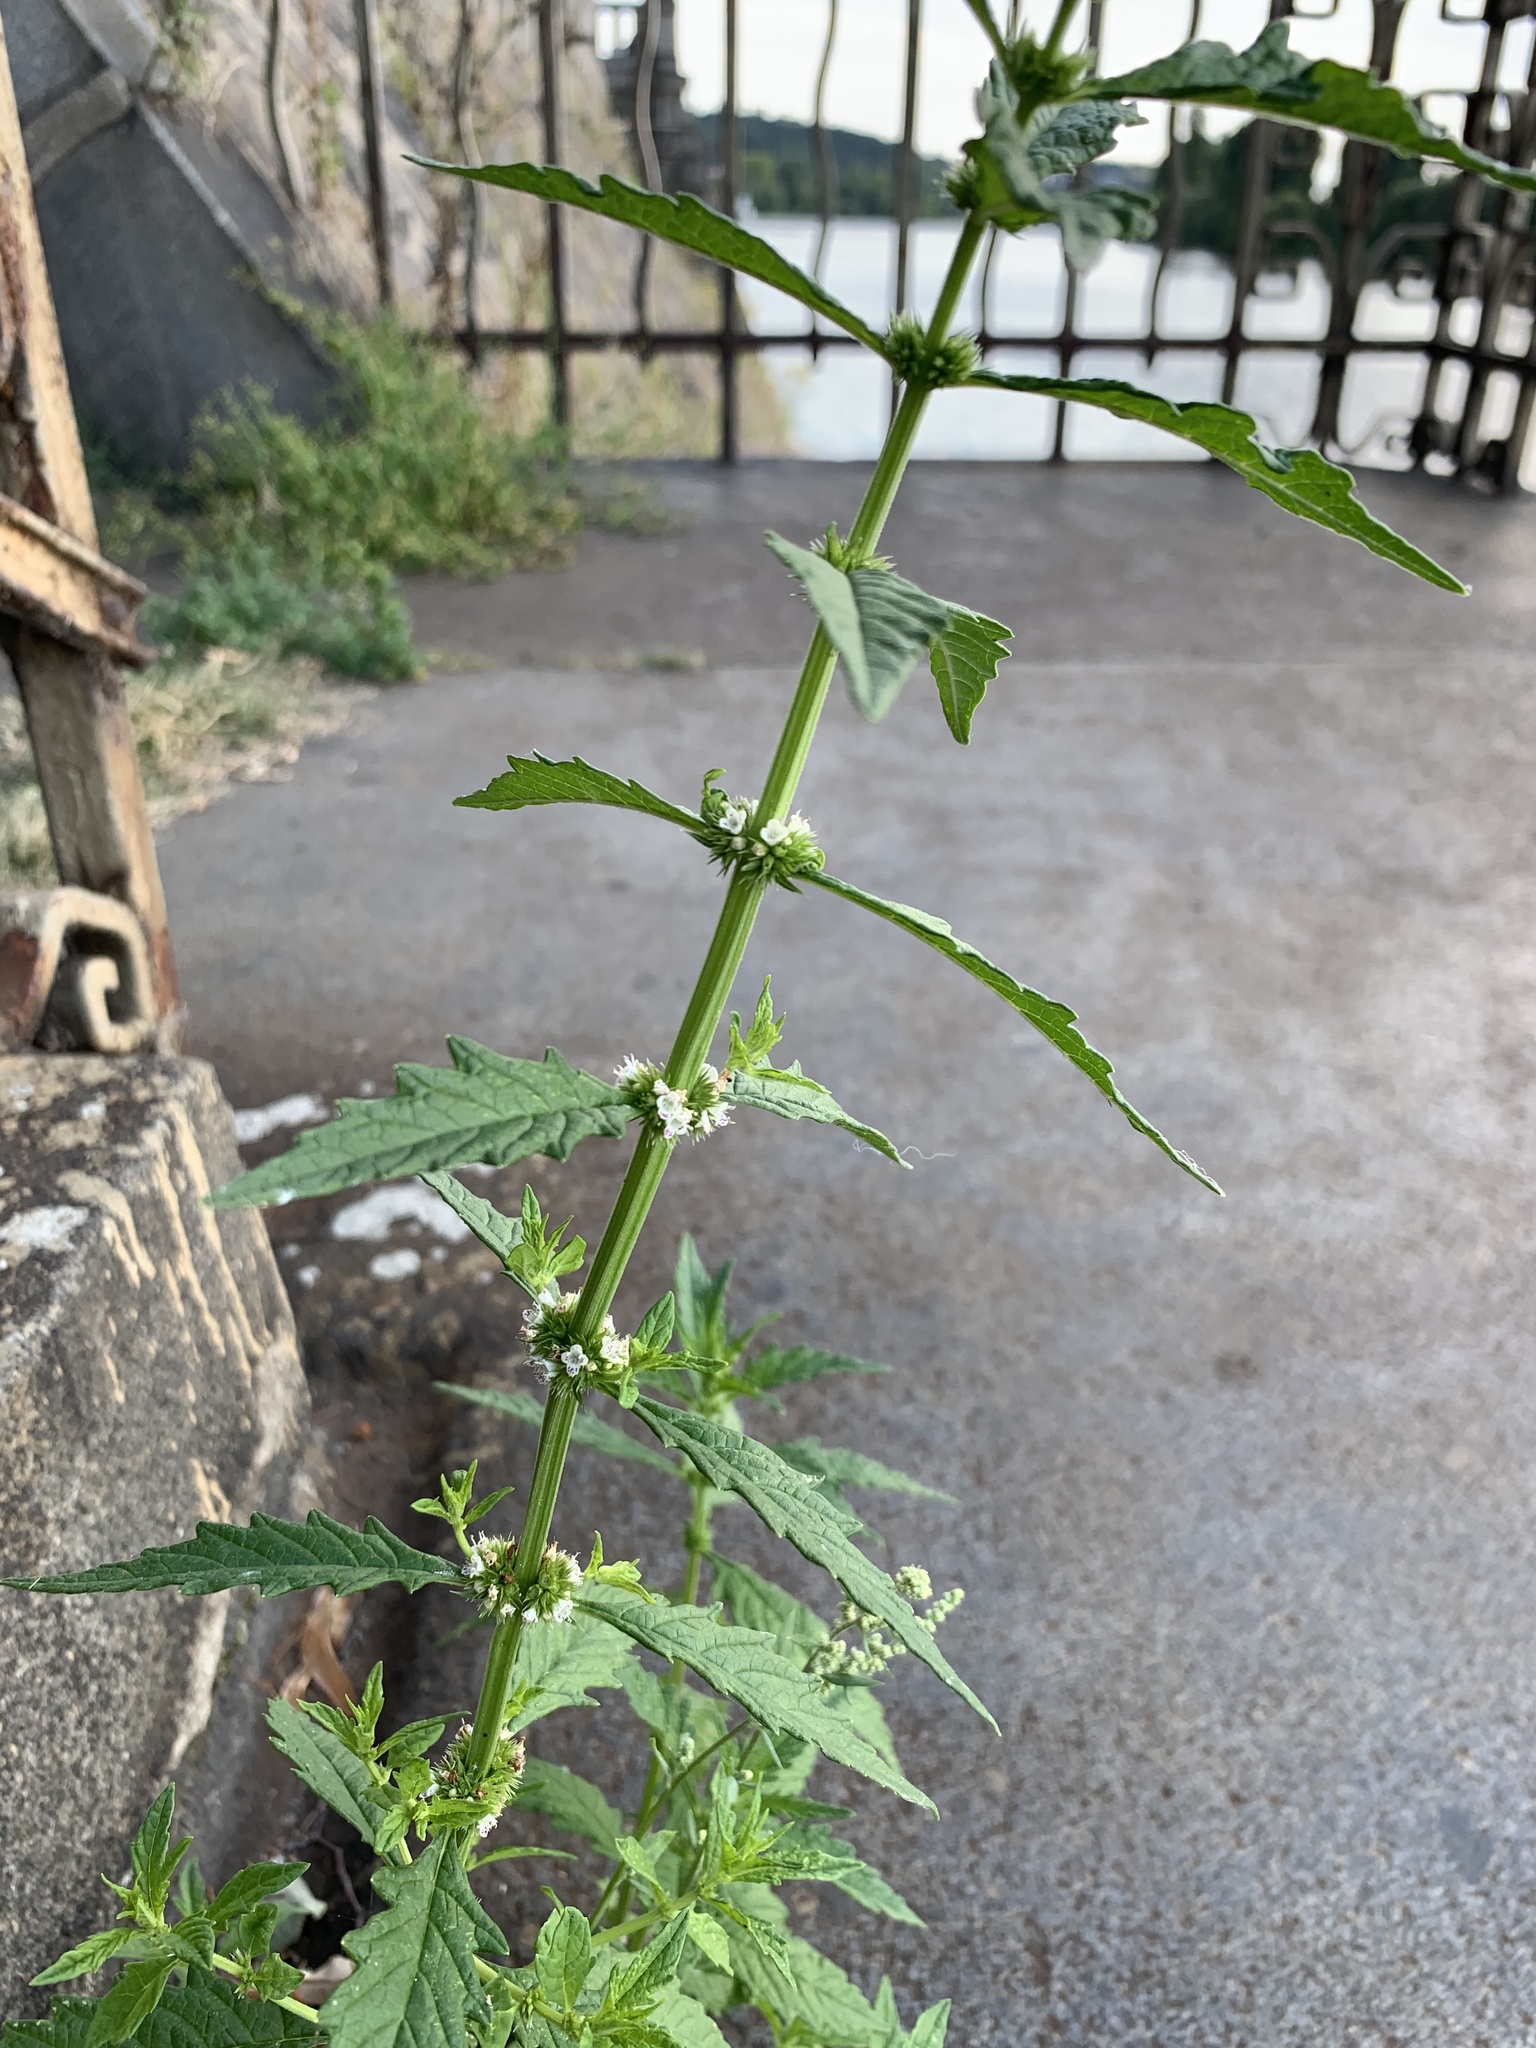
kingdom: Plantae
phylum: Tracheophyta
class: Magnoliopsida
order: Lamiales
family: Lamiaceae
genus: Lycopus
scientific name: Lycopus europaeus
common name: European bugleweed
